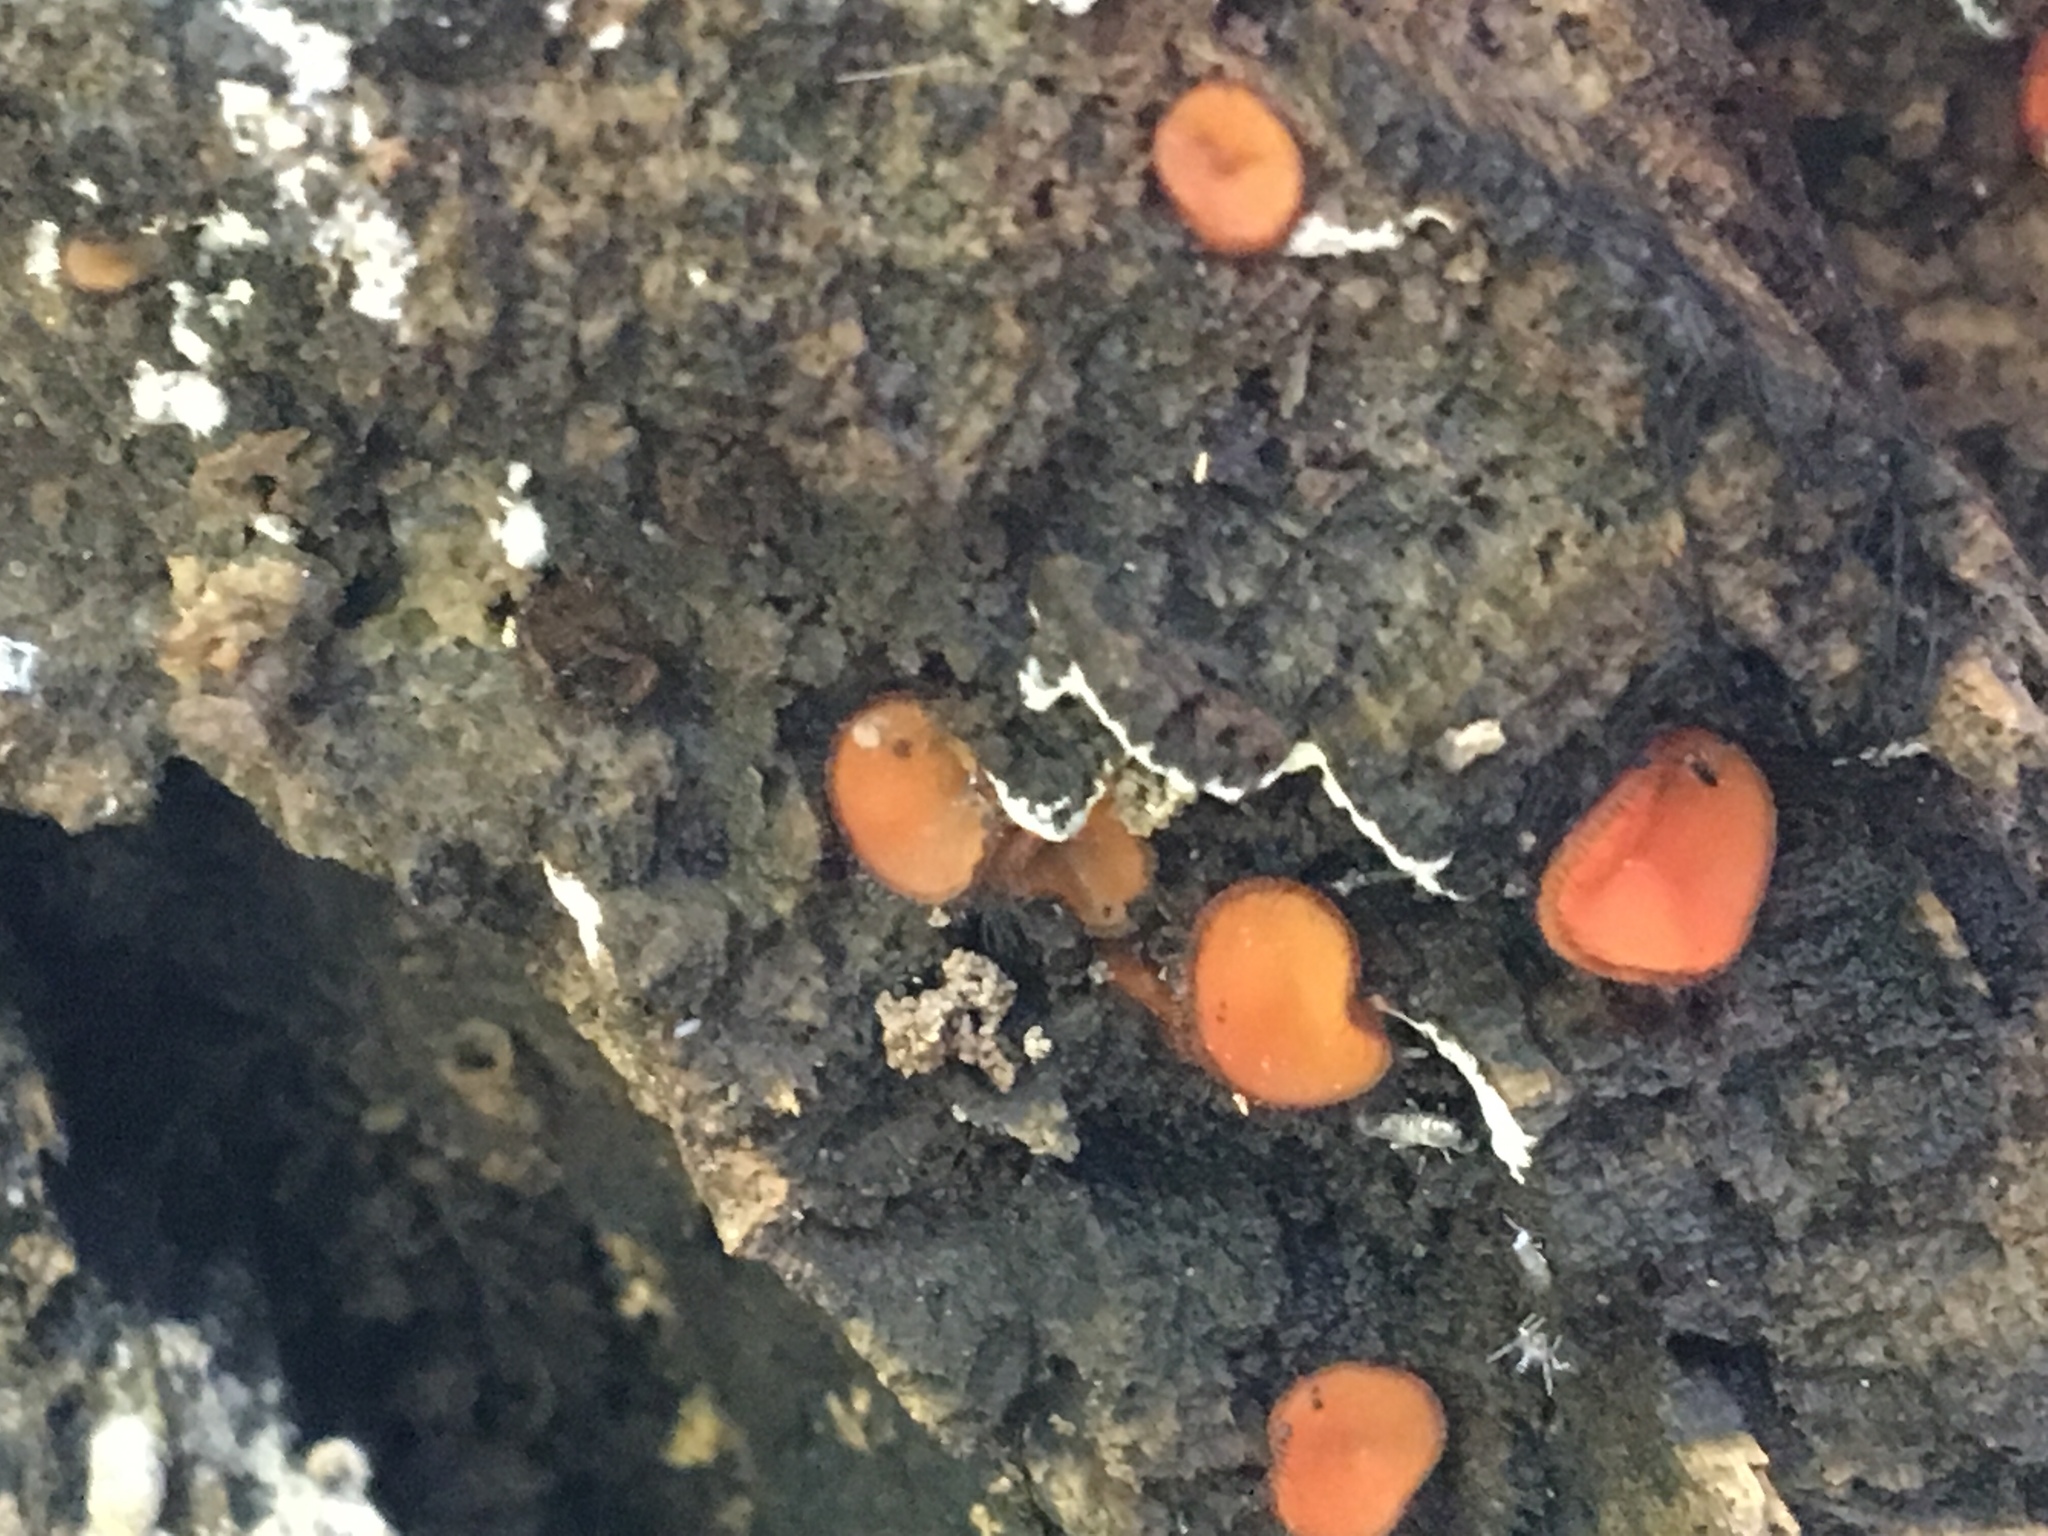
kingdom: Fungi
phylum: Ascomycota
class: Pezizomycetes
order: Pezizales
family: Pyronemataceae
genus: Scutellinia
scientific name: Scutellinia scutellata
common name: Common eyelash
